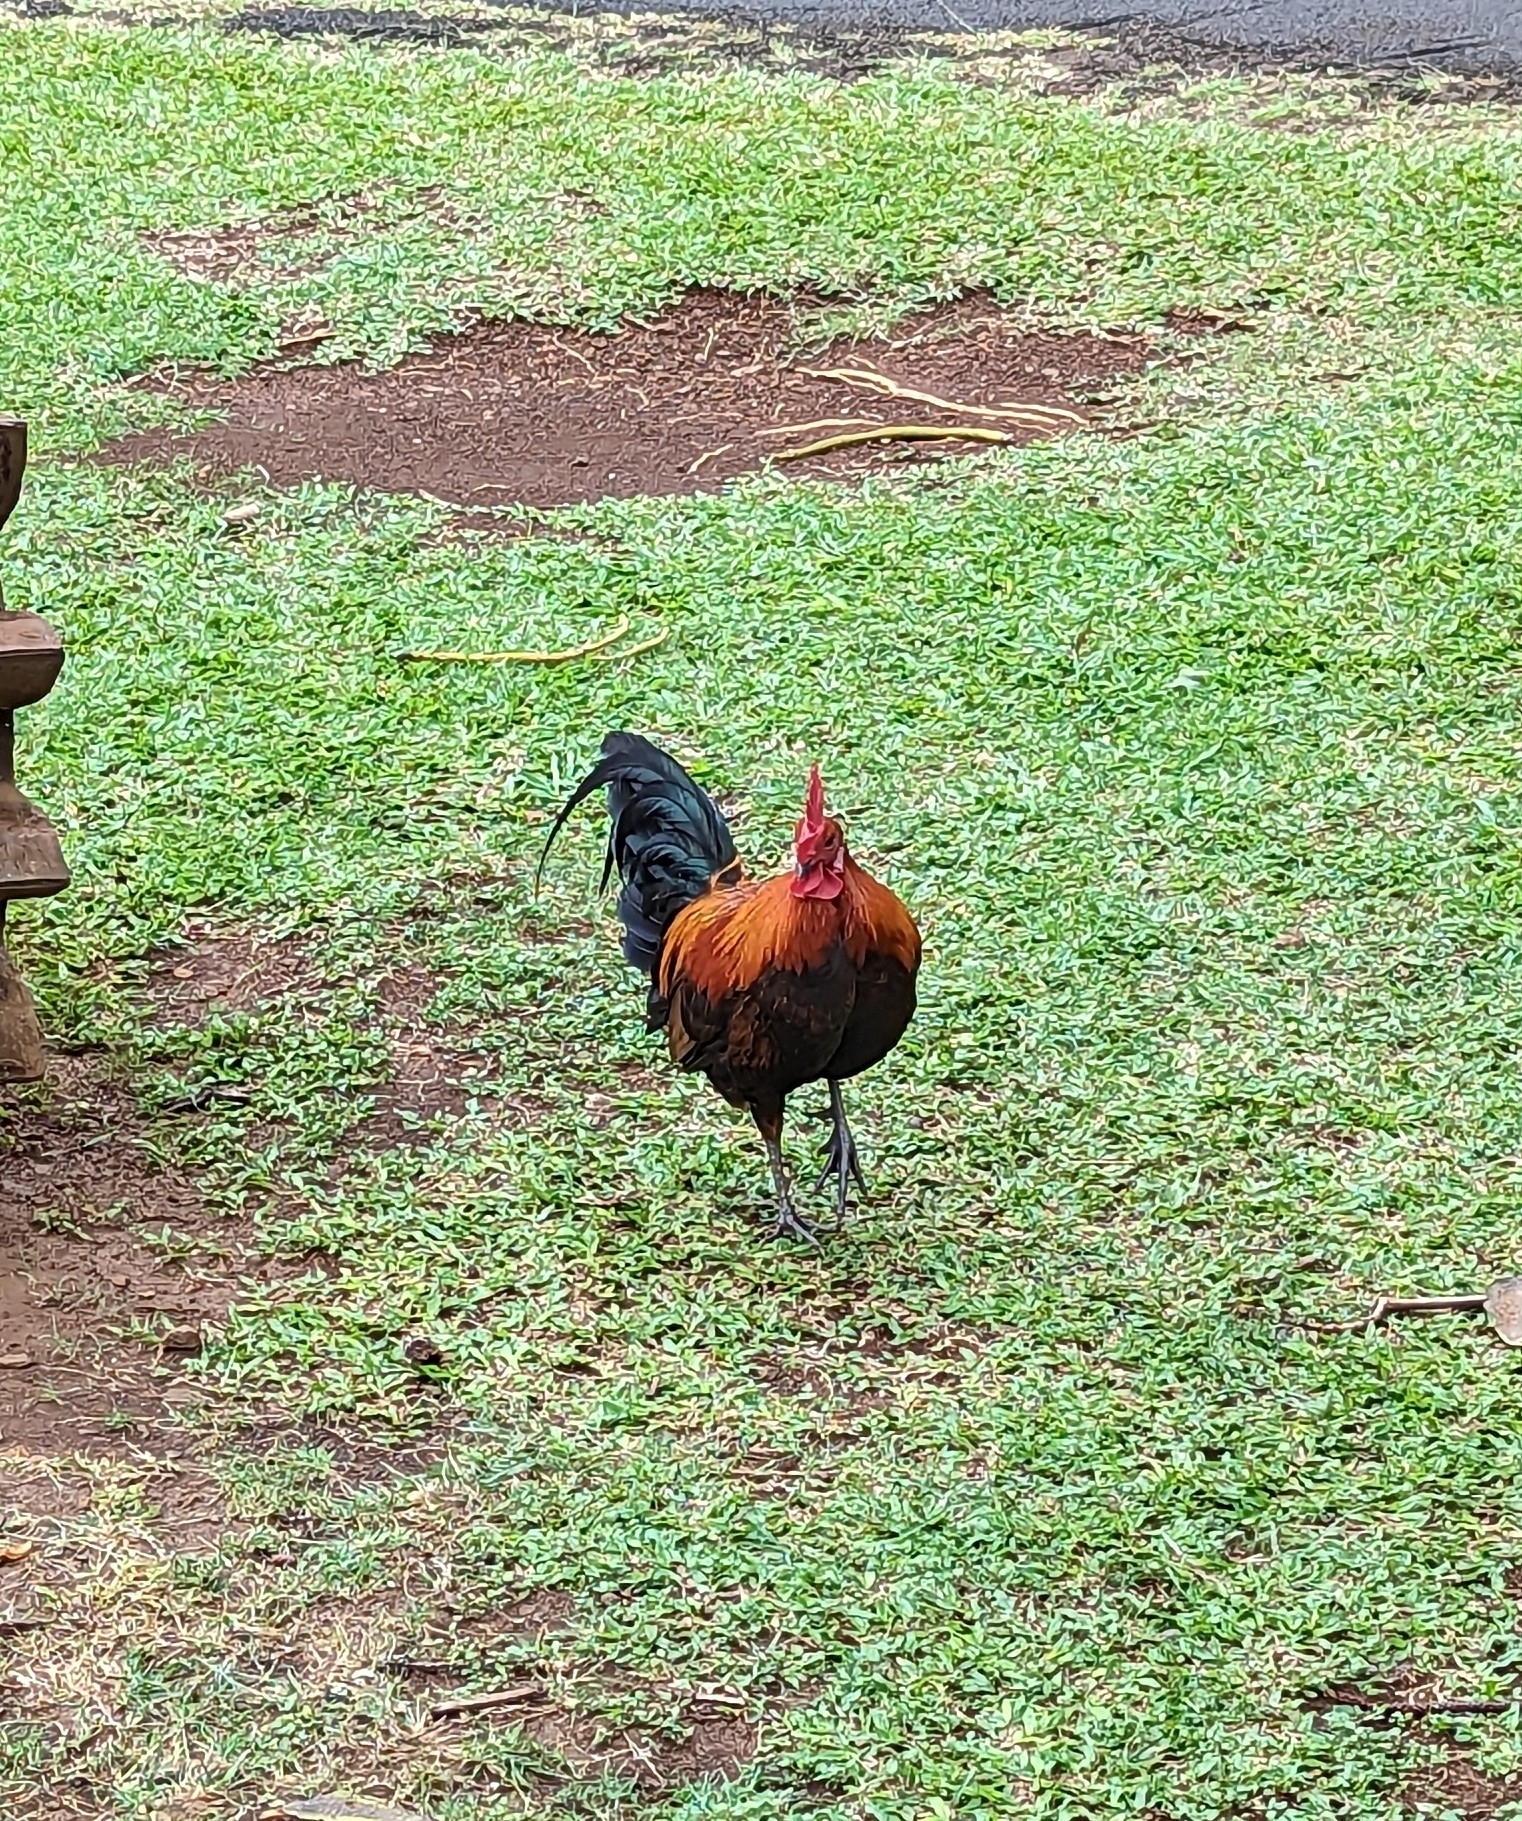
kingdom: Animalia
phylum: Chordata
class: Aves
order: Galliformes
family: Phasianidae
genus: Gallus
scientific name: Gallus gallus
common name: Red junglefowl
